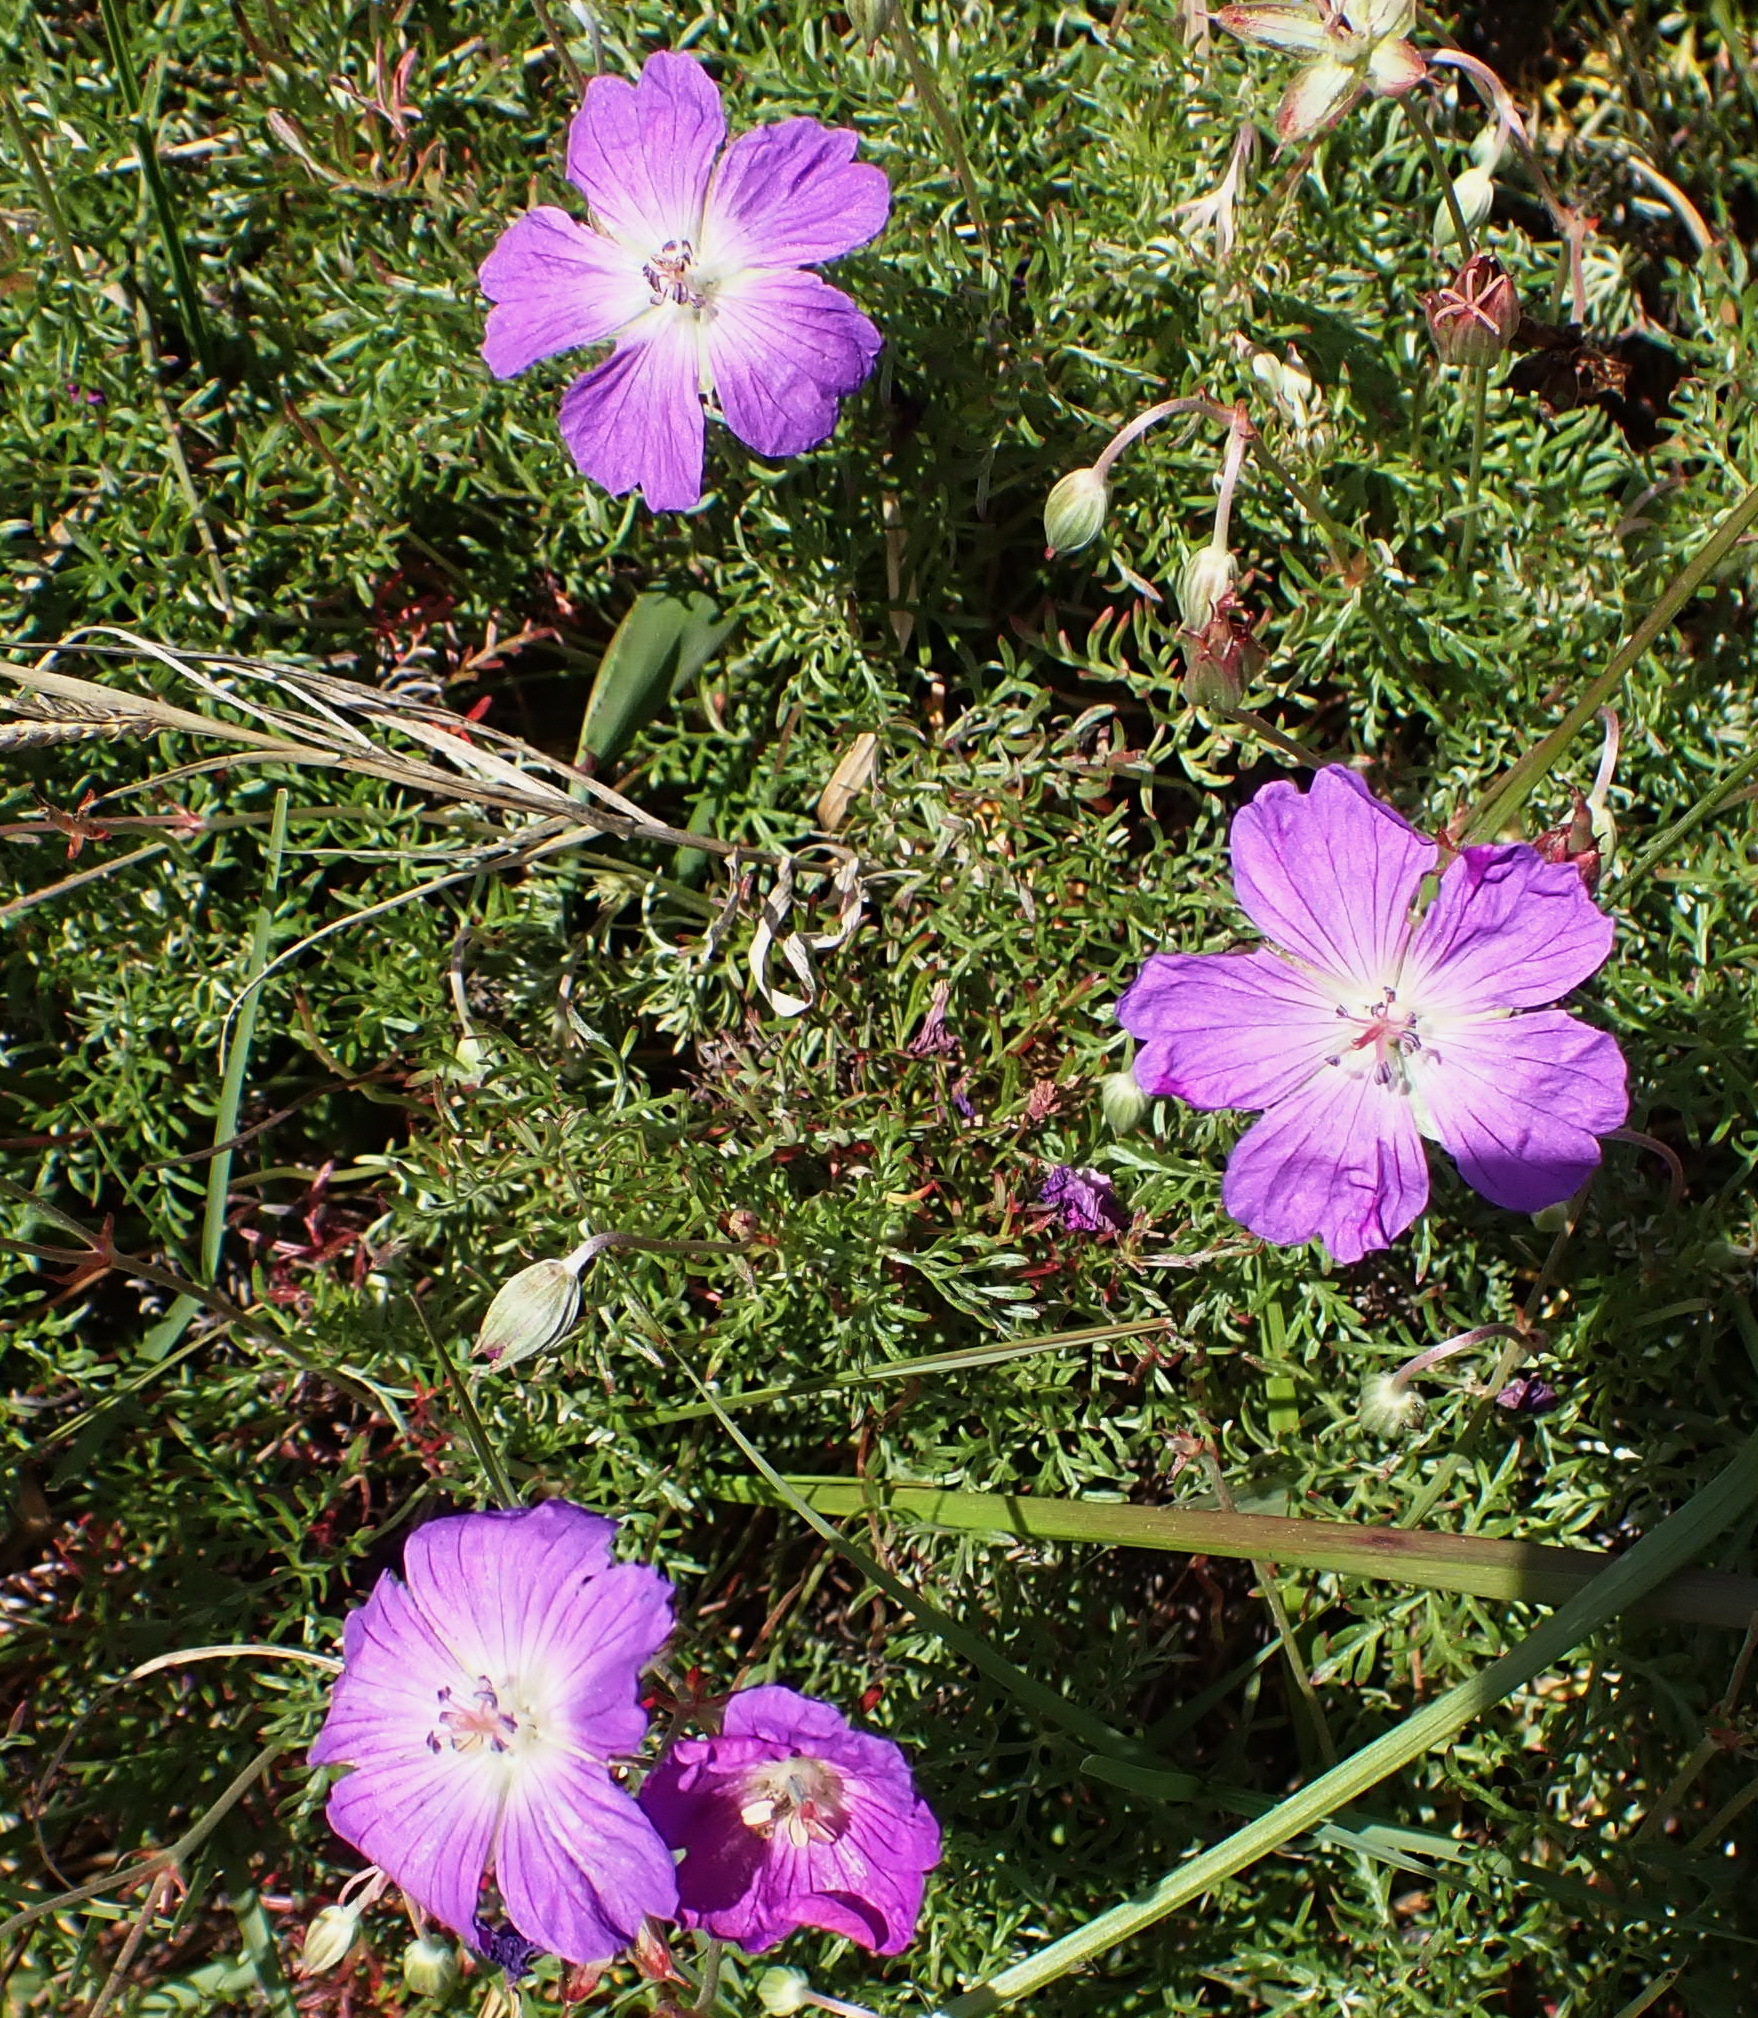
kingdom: Plantae
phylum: Tracheophyta
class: Magnoliopsida
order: Geraniales
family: Geraniaceae
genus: Geranium
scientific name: Geranium incanum
